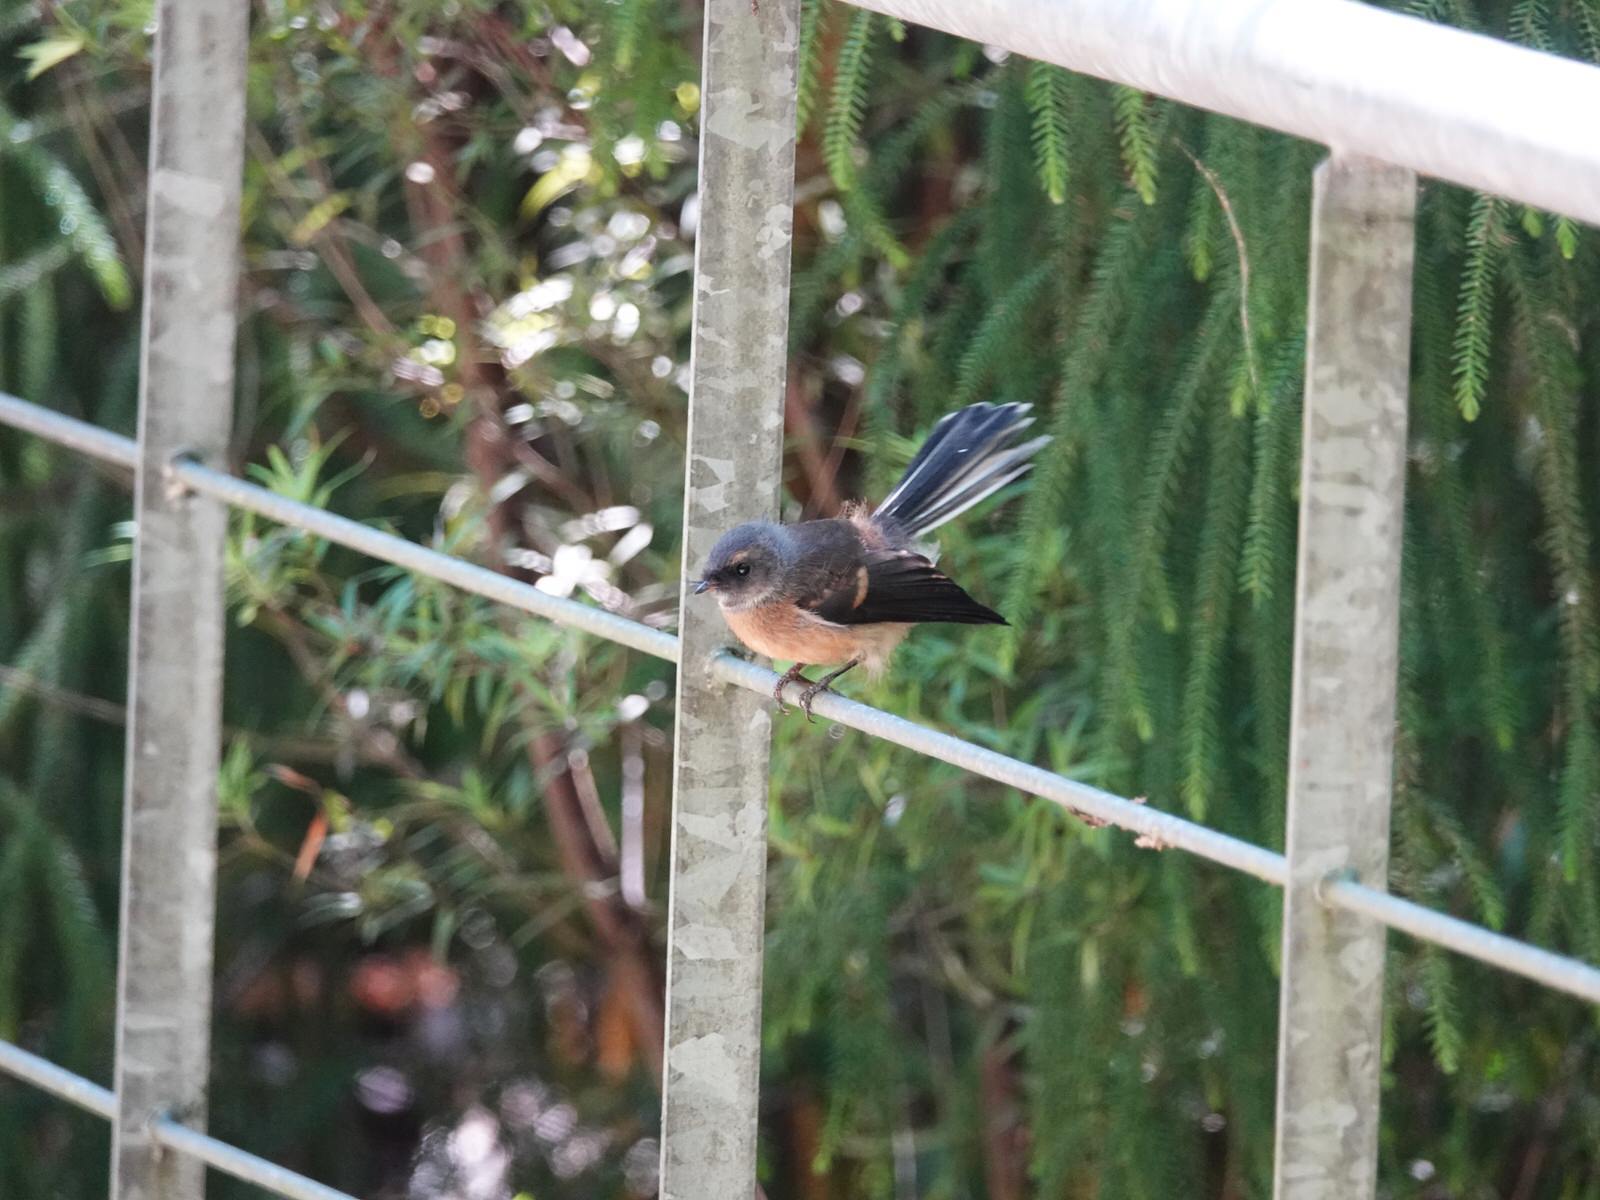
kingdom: Animalia
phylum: Chordata
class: Aves
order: Passeriformes
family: Rhipiduridae
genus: Rhipidura
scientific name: Rhipidura fuliginosa
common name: New zealand fantail
